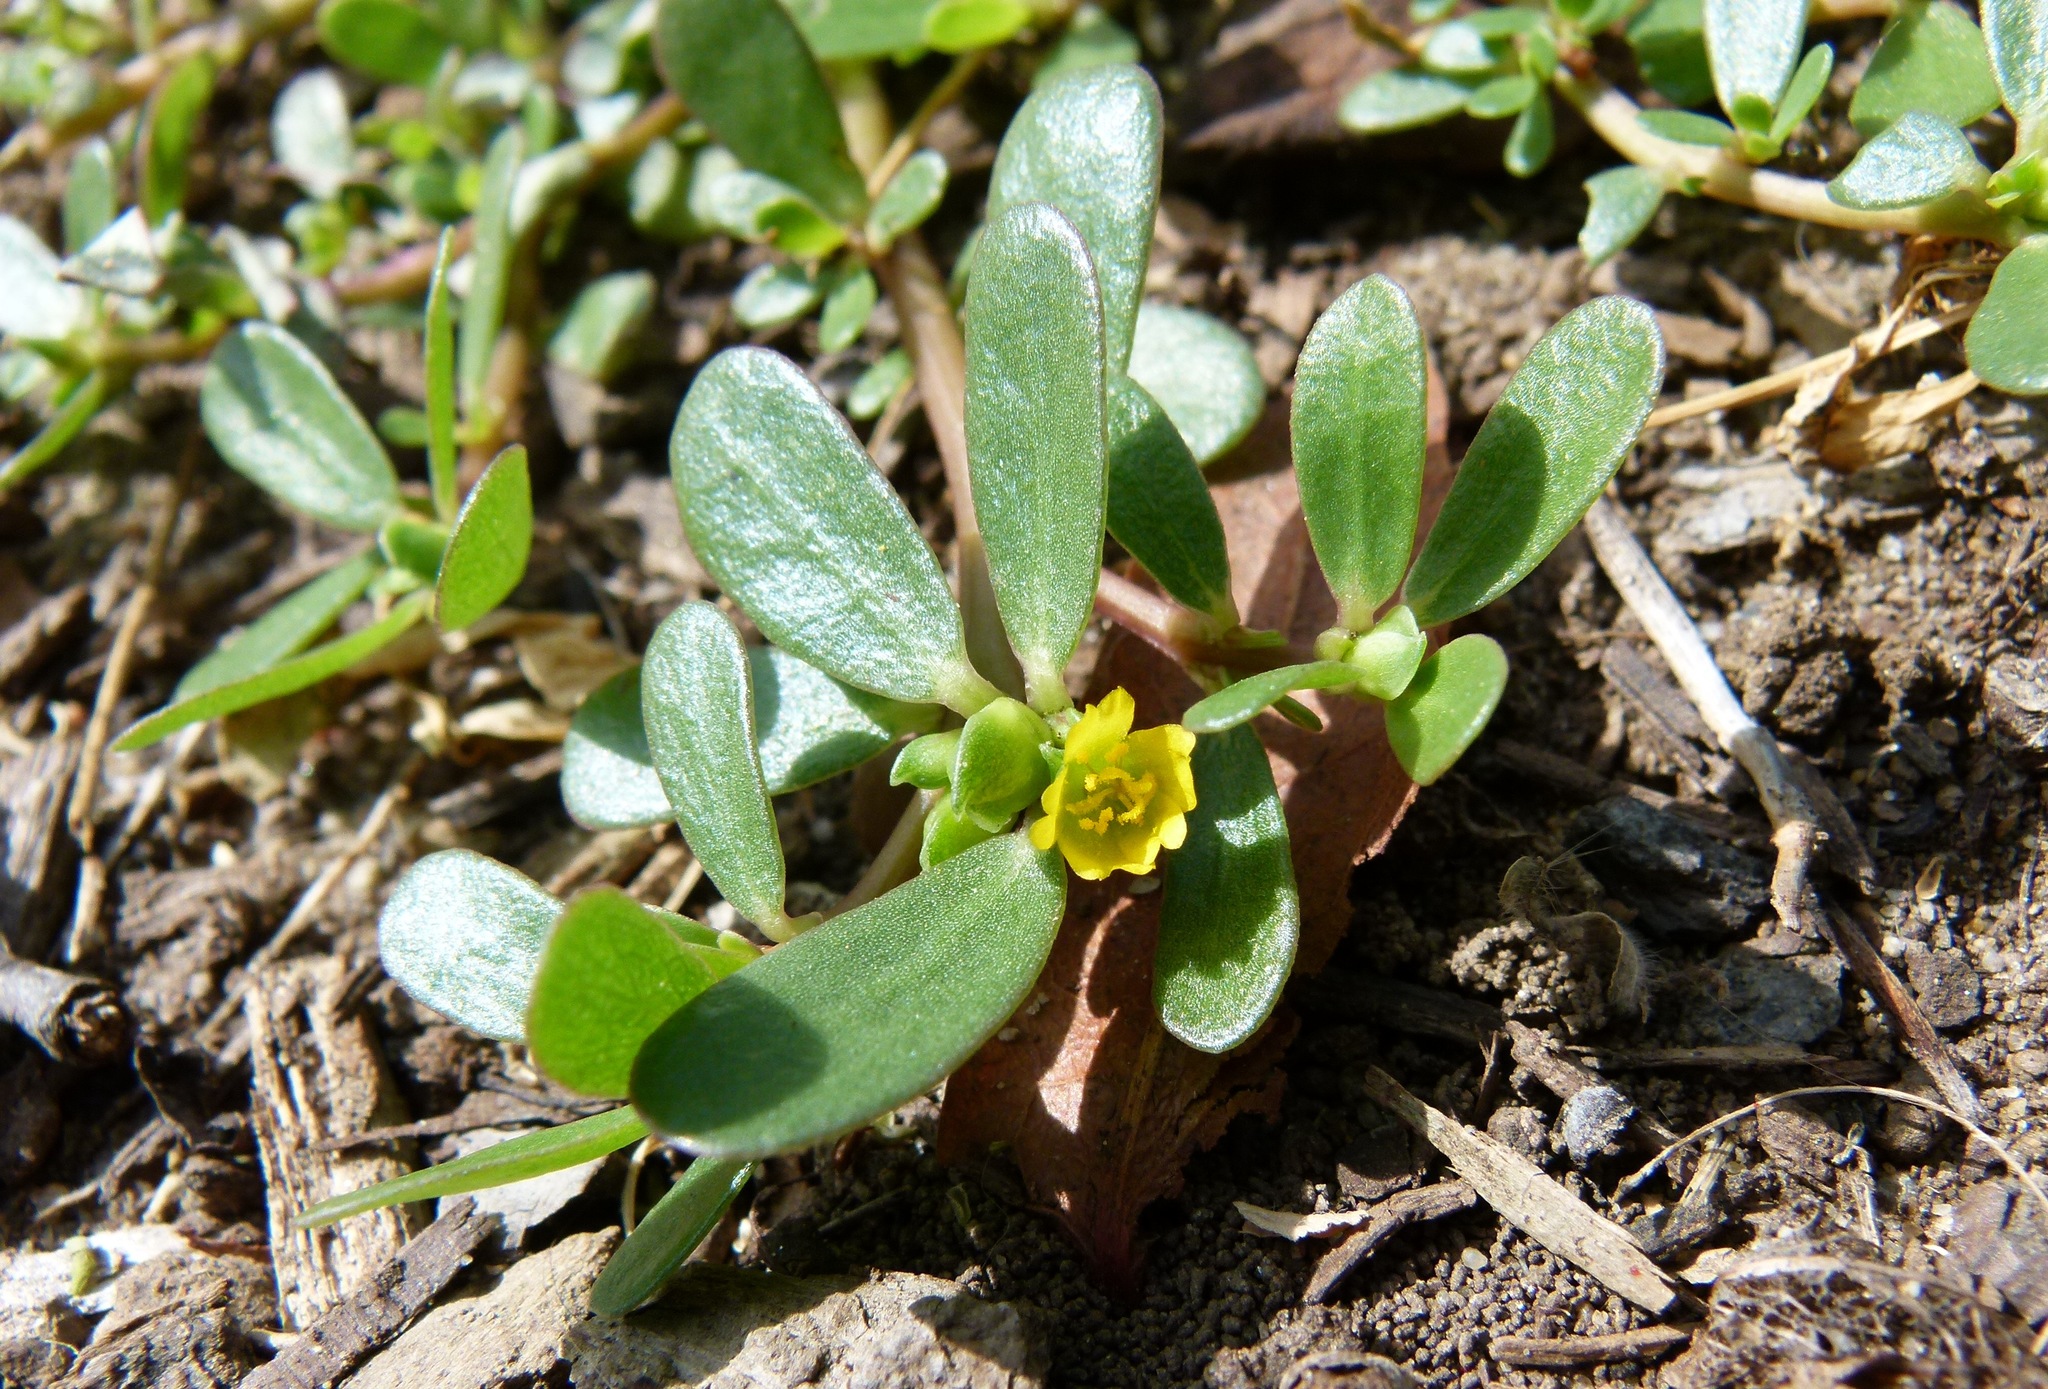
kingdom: Plantae
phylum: Tracheophyta
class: Magnoliopsida
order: Caryophyllales
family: Portulacaceae
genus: Portulaca
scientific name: Portulaca oleracea
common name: Common purslane
